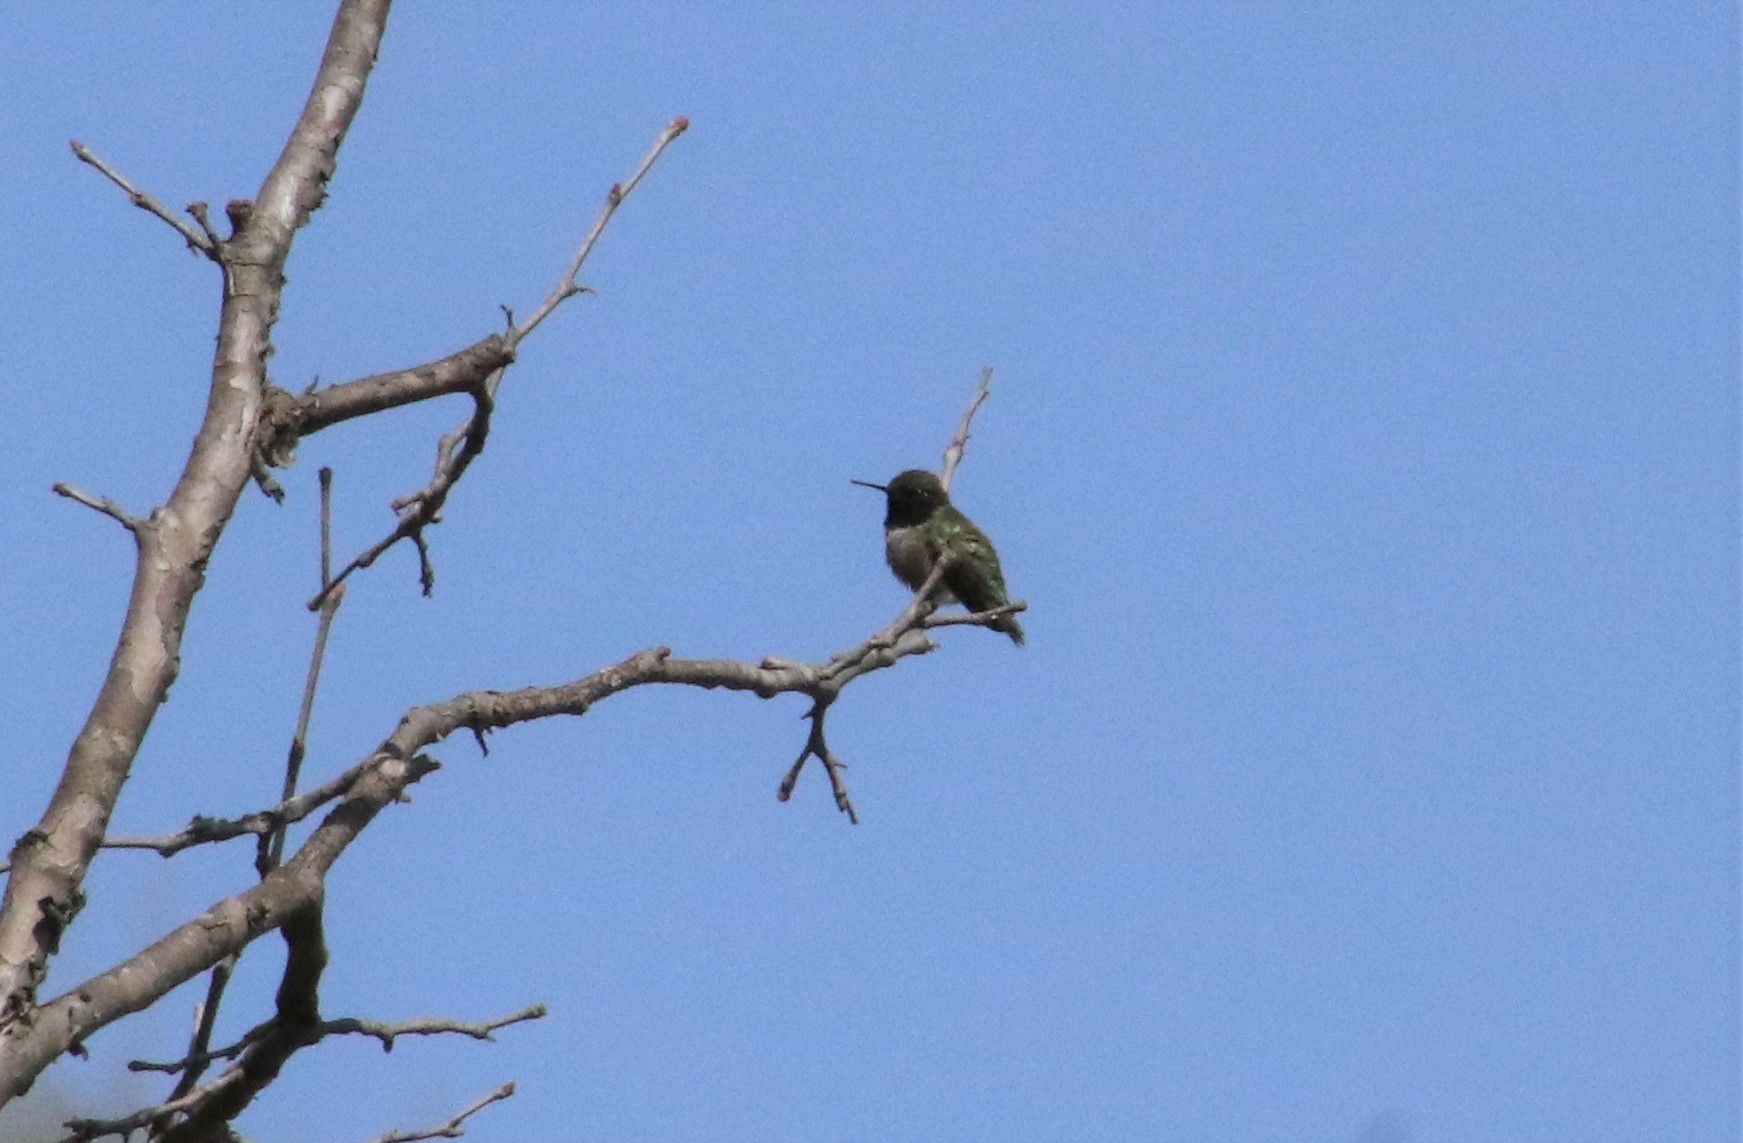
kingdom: Animalia
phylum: Chordata
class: Aves
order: Apodiformes
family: Trochilidae
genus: Archilochus
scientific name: Archilochus alexandri
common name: Black-chinned hummingbird
